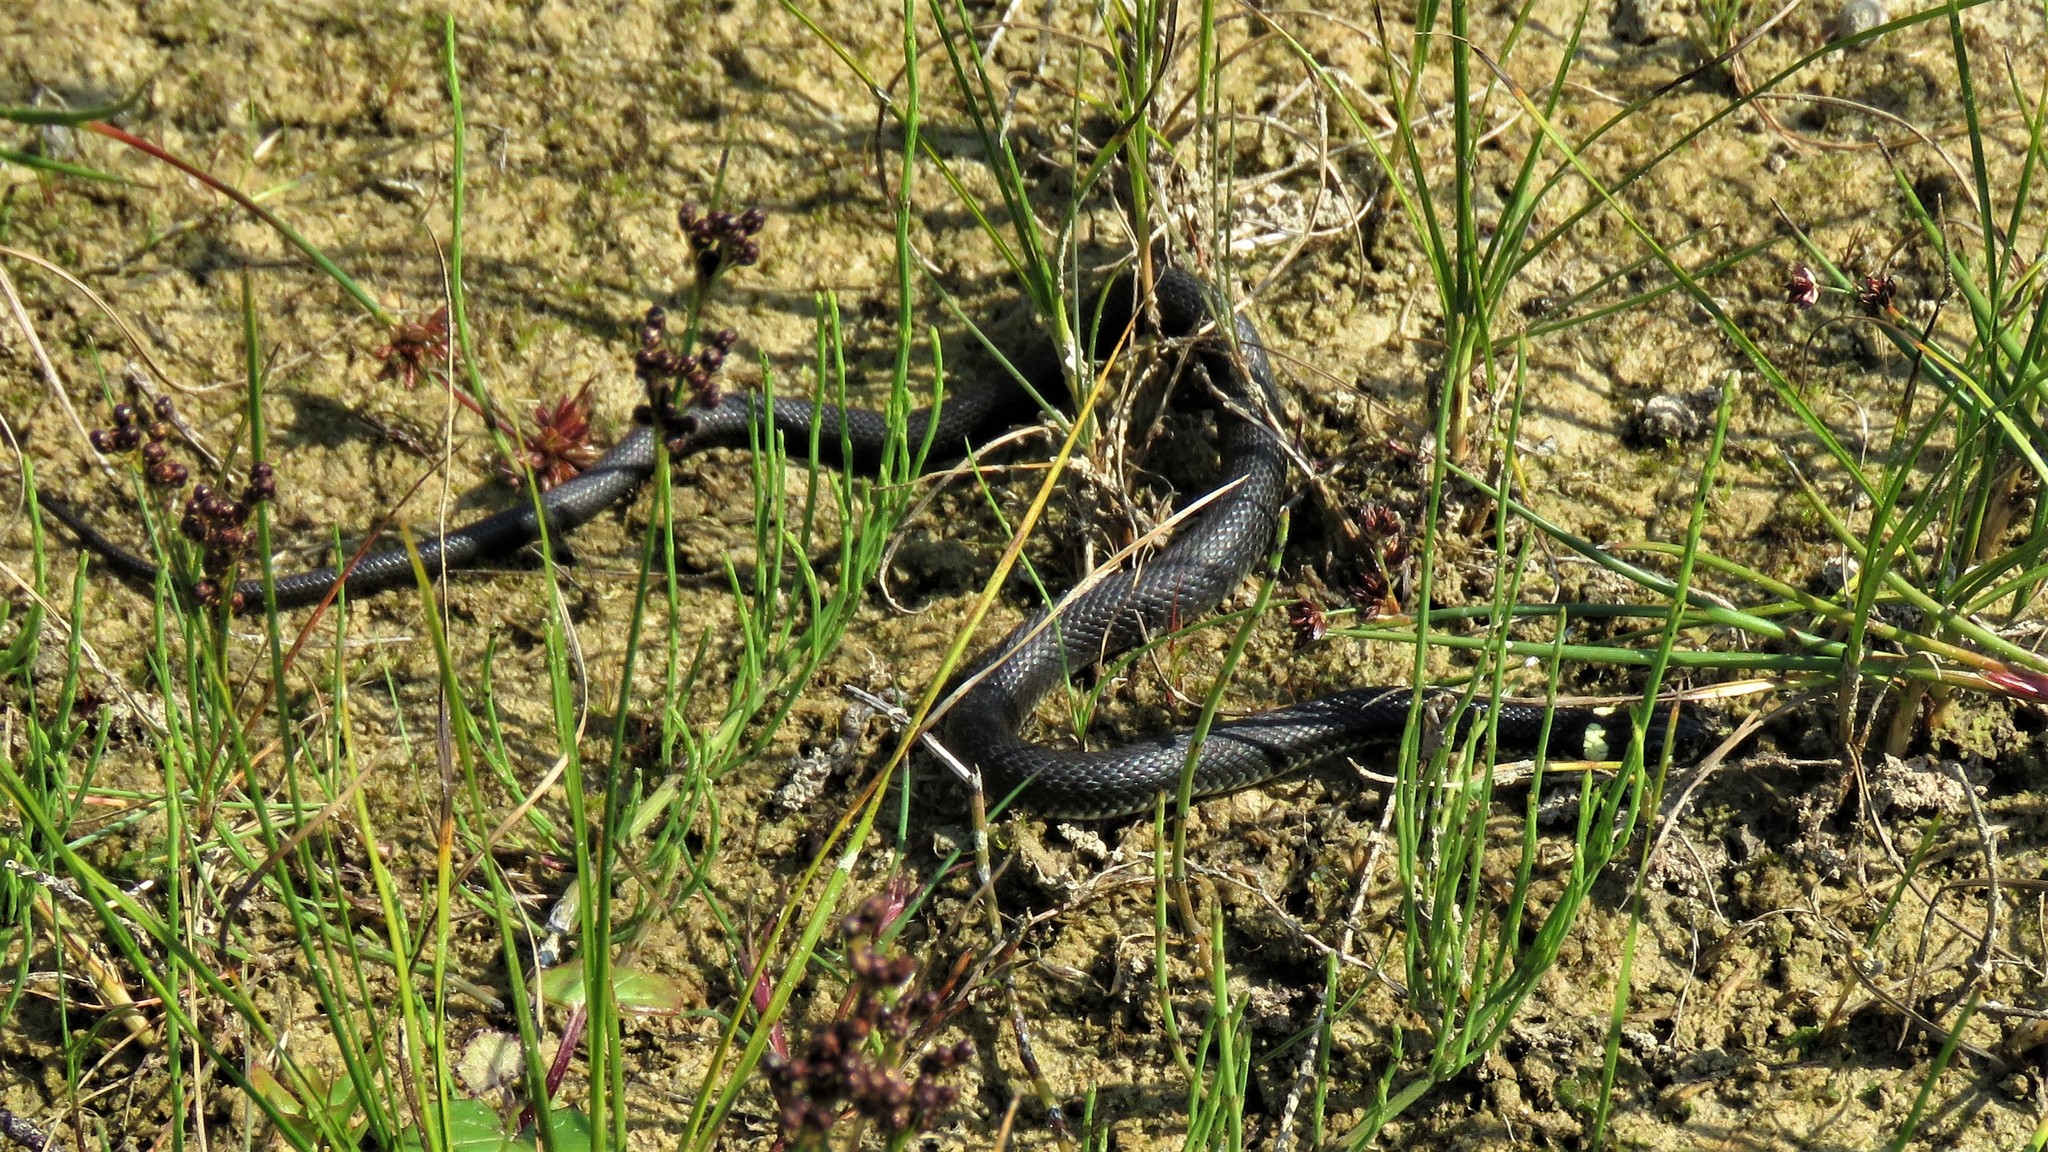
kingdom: Animalia
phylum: Chordata
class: Squamata
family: Colubridae
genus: Natrix
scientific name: Natrix natrix
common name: Grass snake
